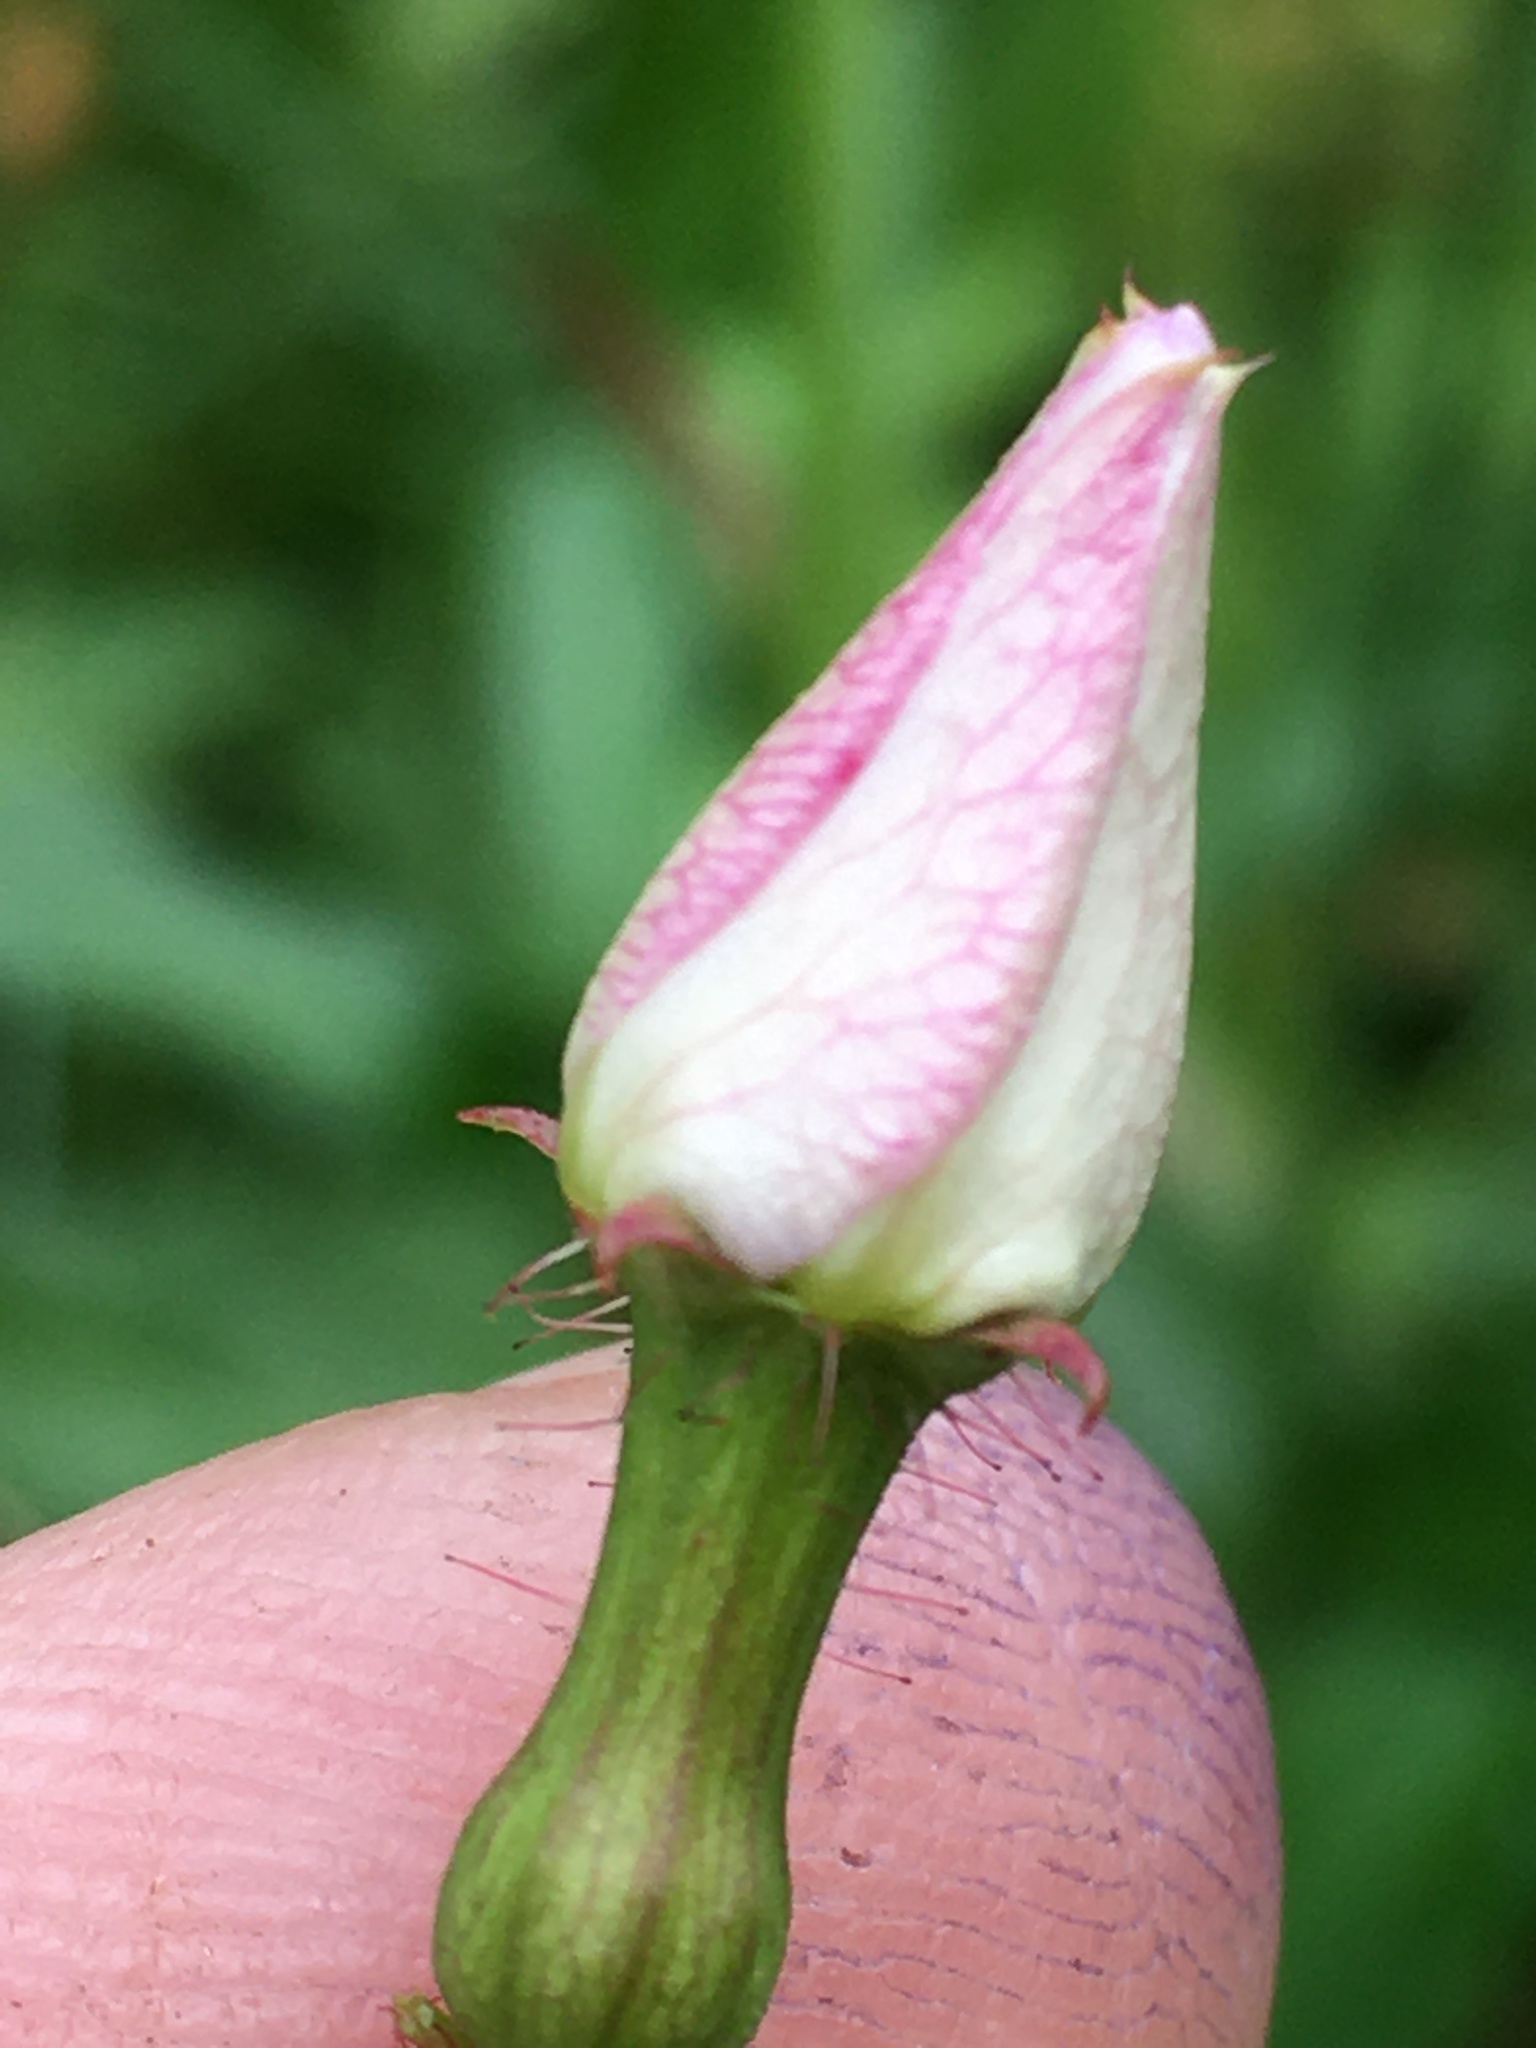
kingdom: Plantae
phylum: Tracheophyta
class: Magnoliopsida
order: Myrtales
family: Melastomataceae
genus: Rhexia
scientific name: Rhexia mariana
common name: Dull meadow-pitcher
